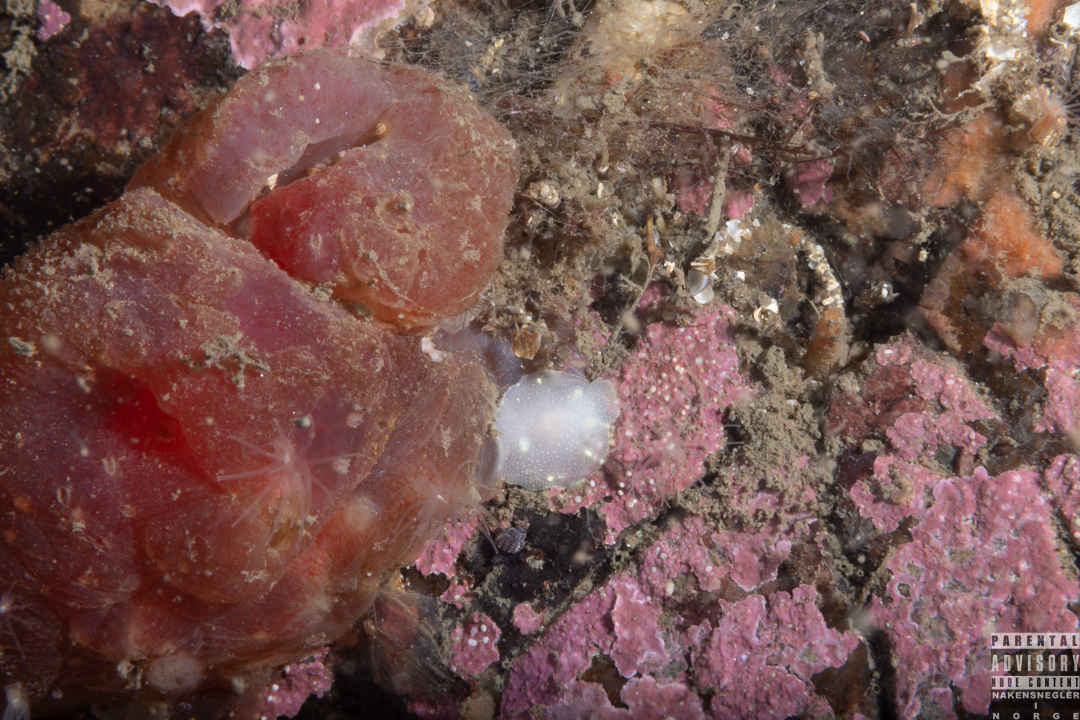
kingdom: Animalia
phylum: Mollusca
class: Gastropoda
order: Nudibranchia
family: Cadlinidae
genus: Cadlina
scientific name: Cadlina laevis
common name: White atlantic cadlina
